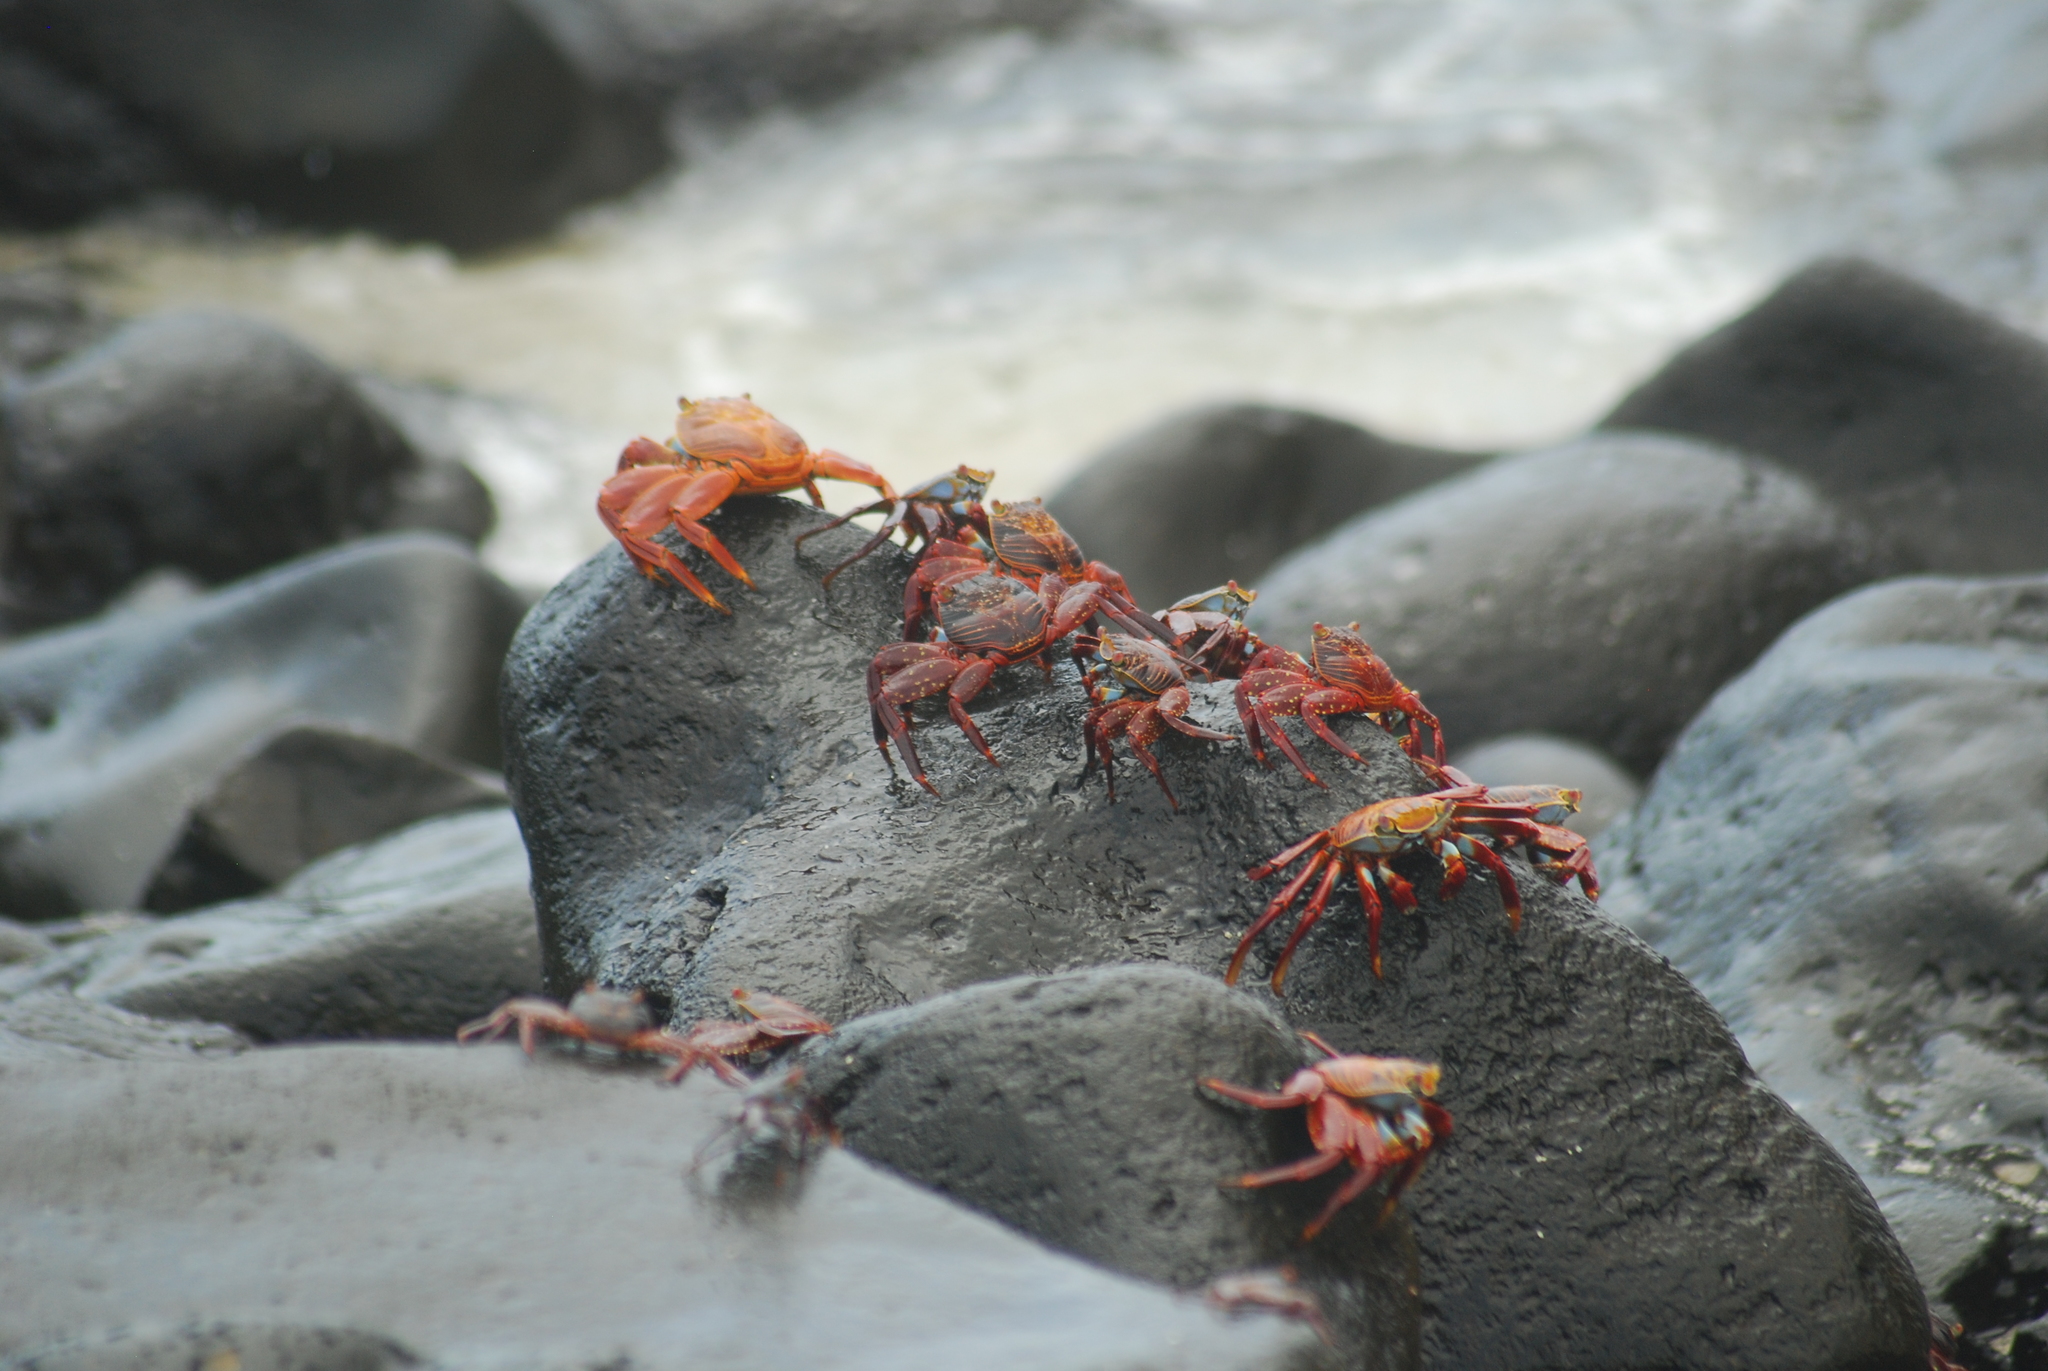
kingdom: Animalia
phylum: Arthropoda
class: Malacostraca
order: Decapoda
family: Grapsidae
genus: Grapsus
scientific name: Grapsus grapsus
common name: Sally lightfoot
